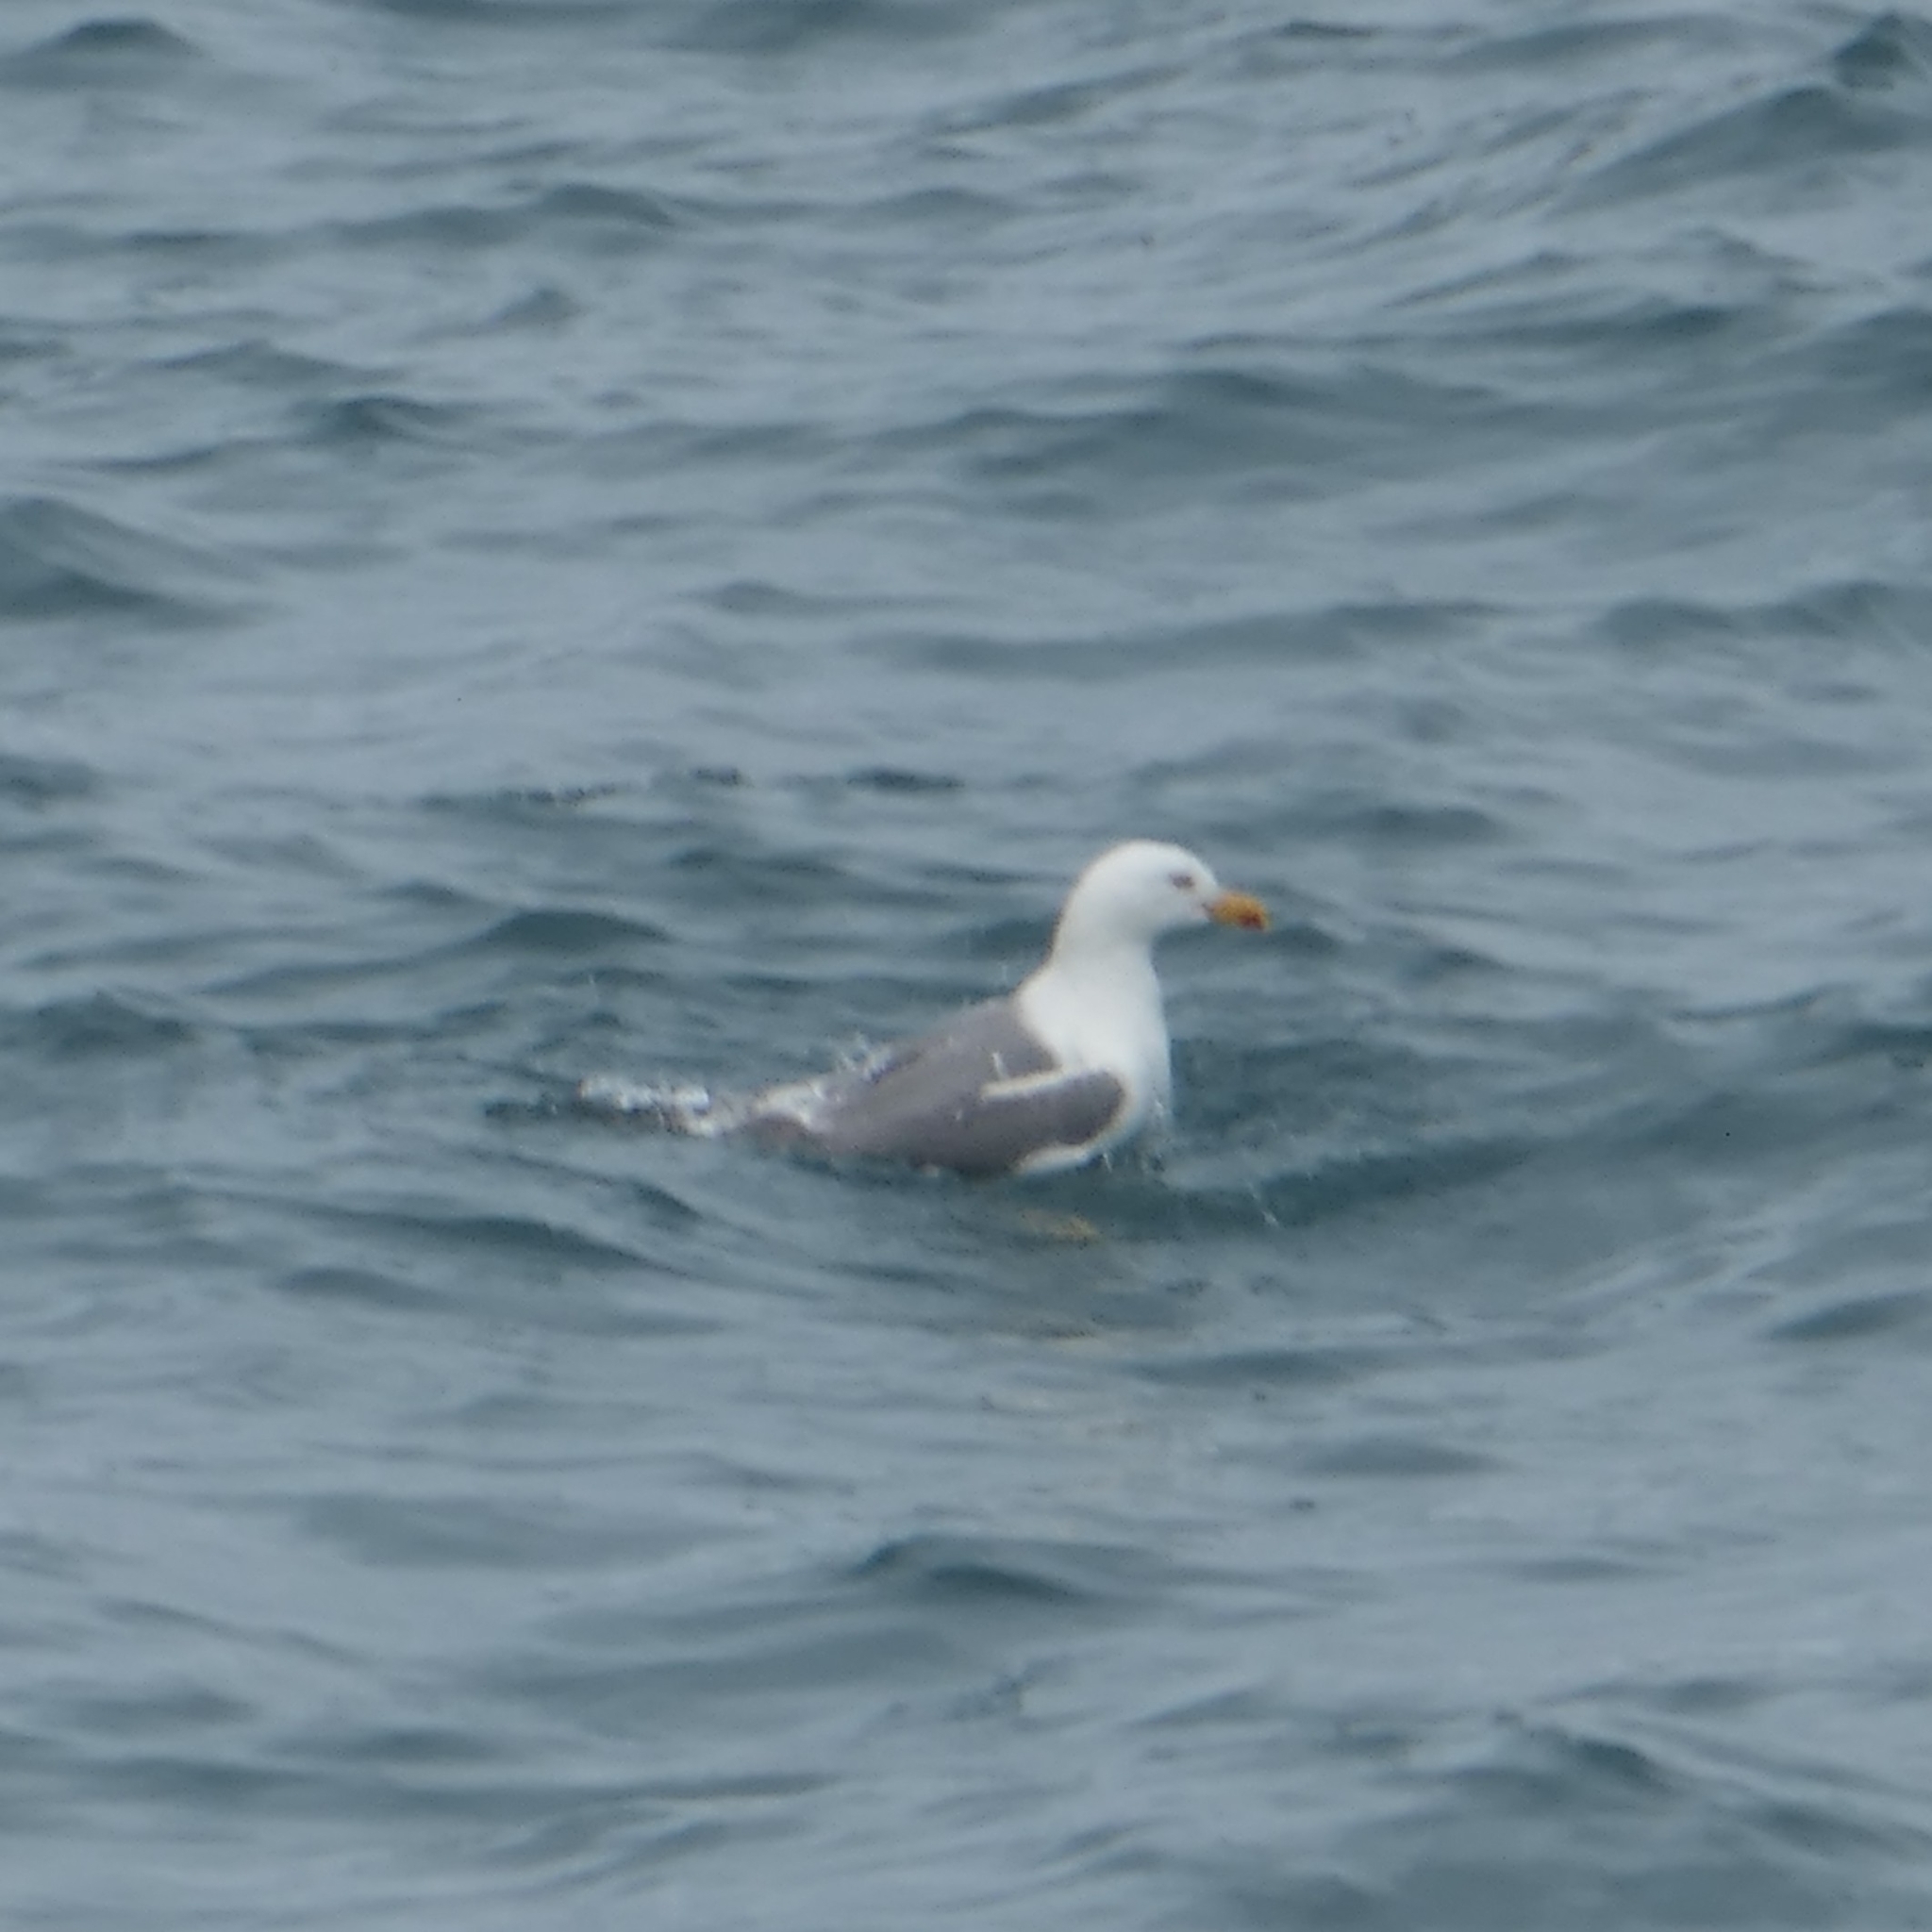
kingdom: Animalia
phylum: Chordata
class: Aves
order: Charadriiformes
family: Laridae
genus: Larus
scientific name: Larus michahellis
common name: Yellow-legged gull
